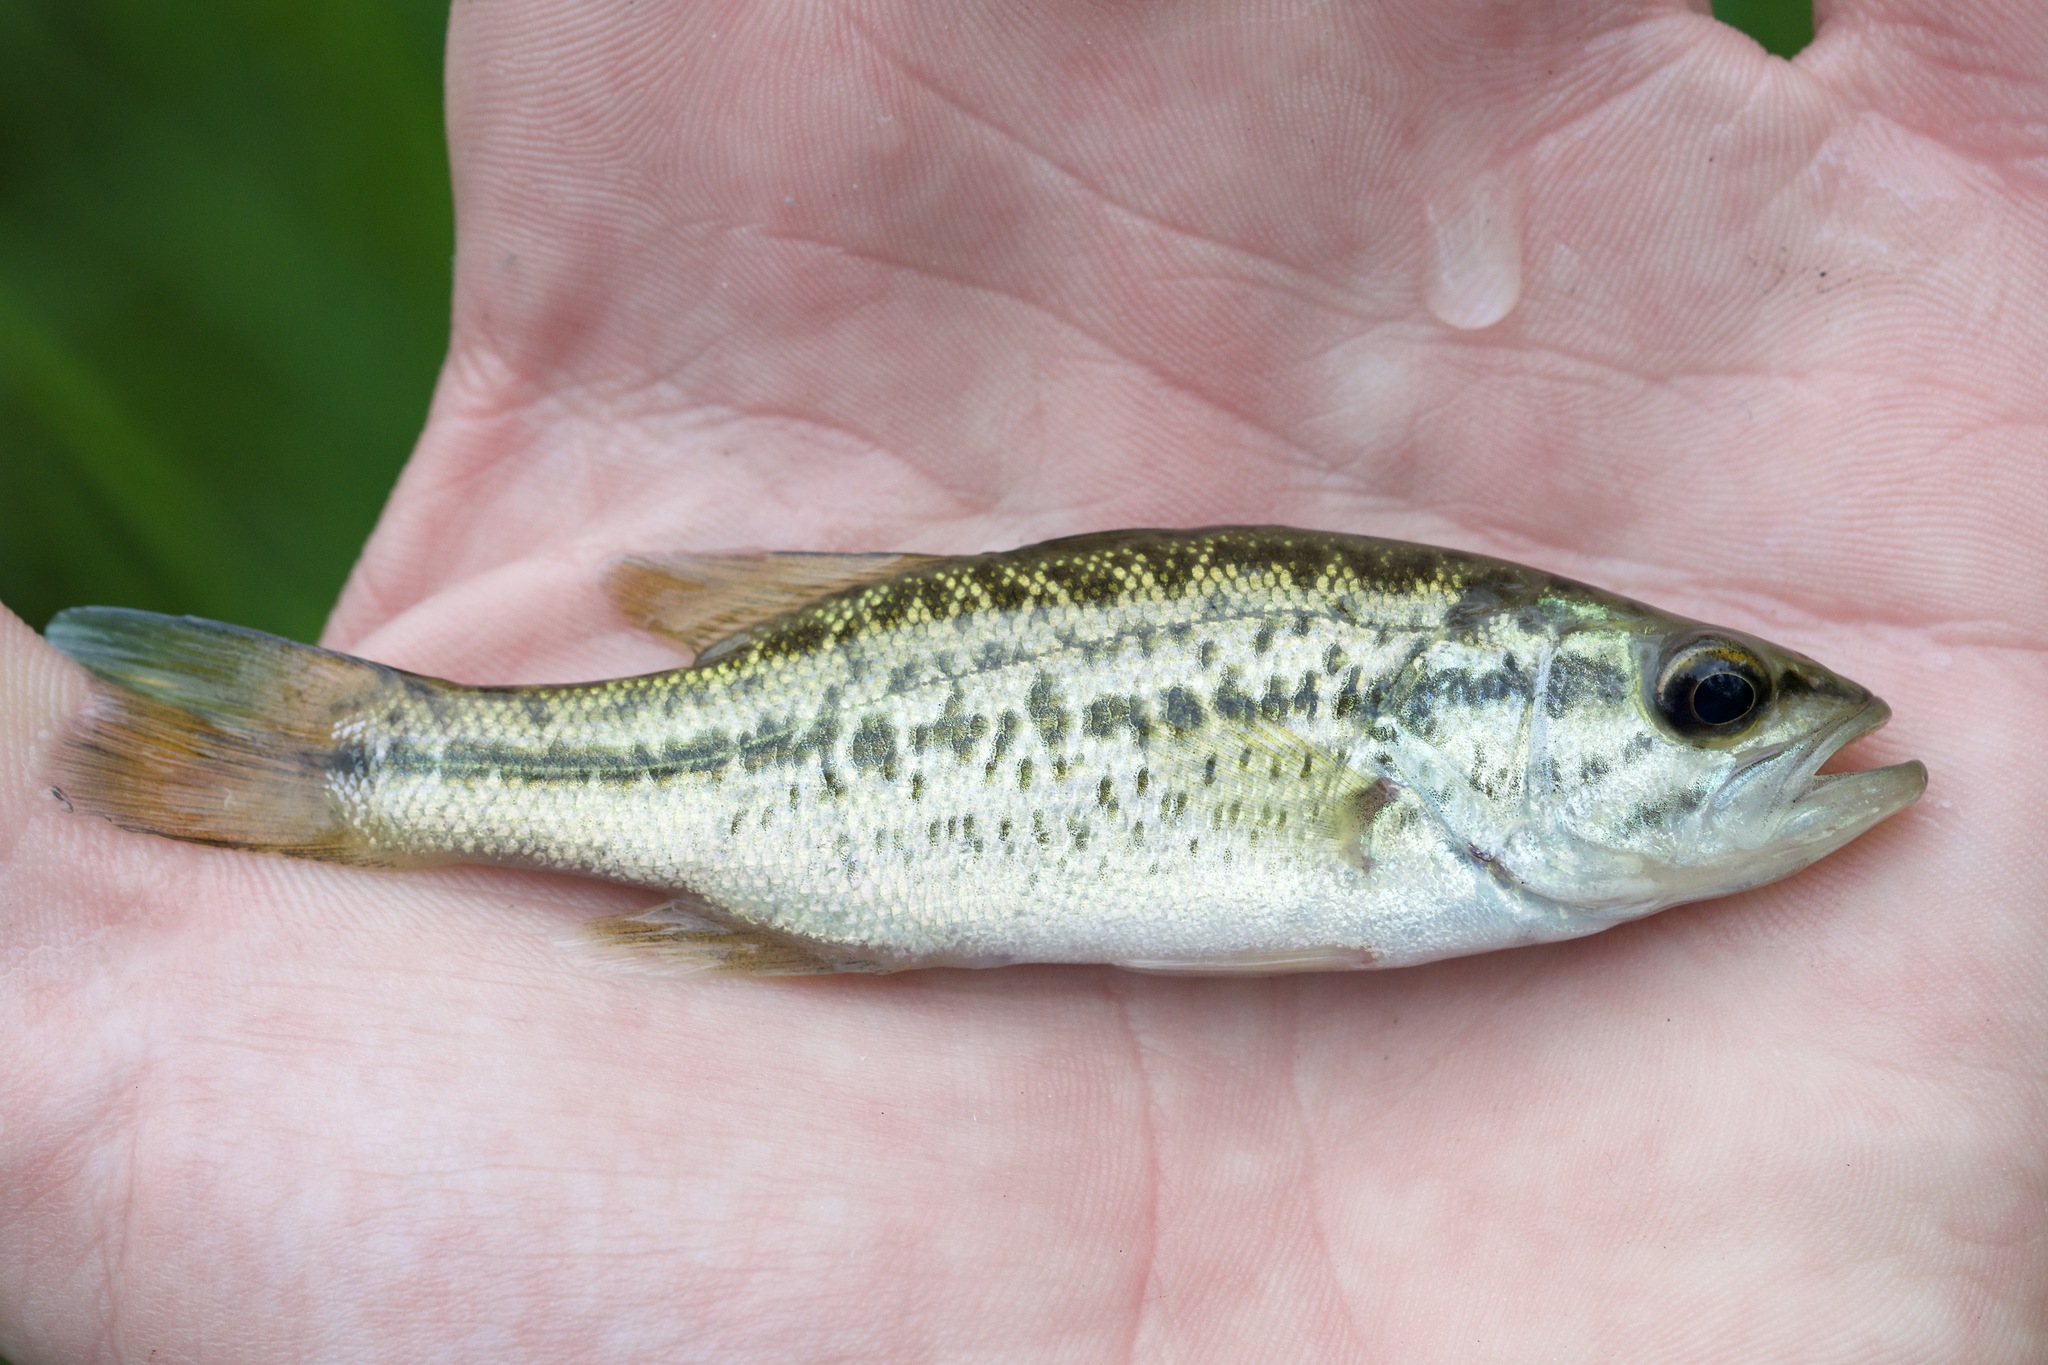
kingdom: Animalia
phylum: Chordata
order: Perciformes
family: Centrarchidae
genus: Micropterus
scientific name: Micropterus
